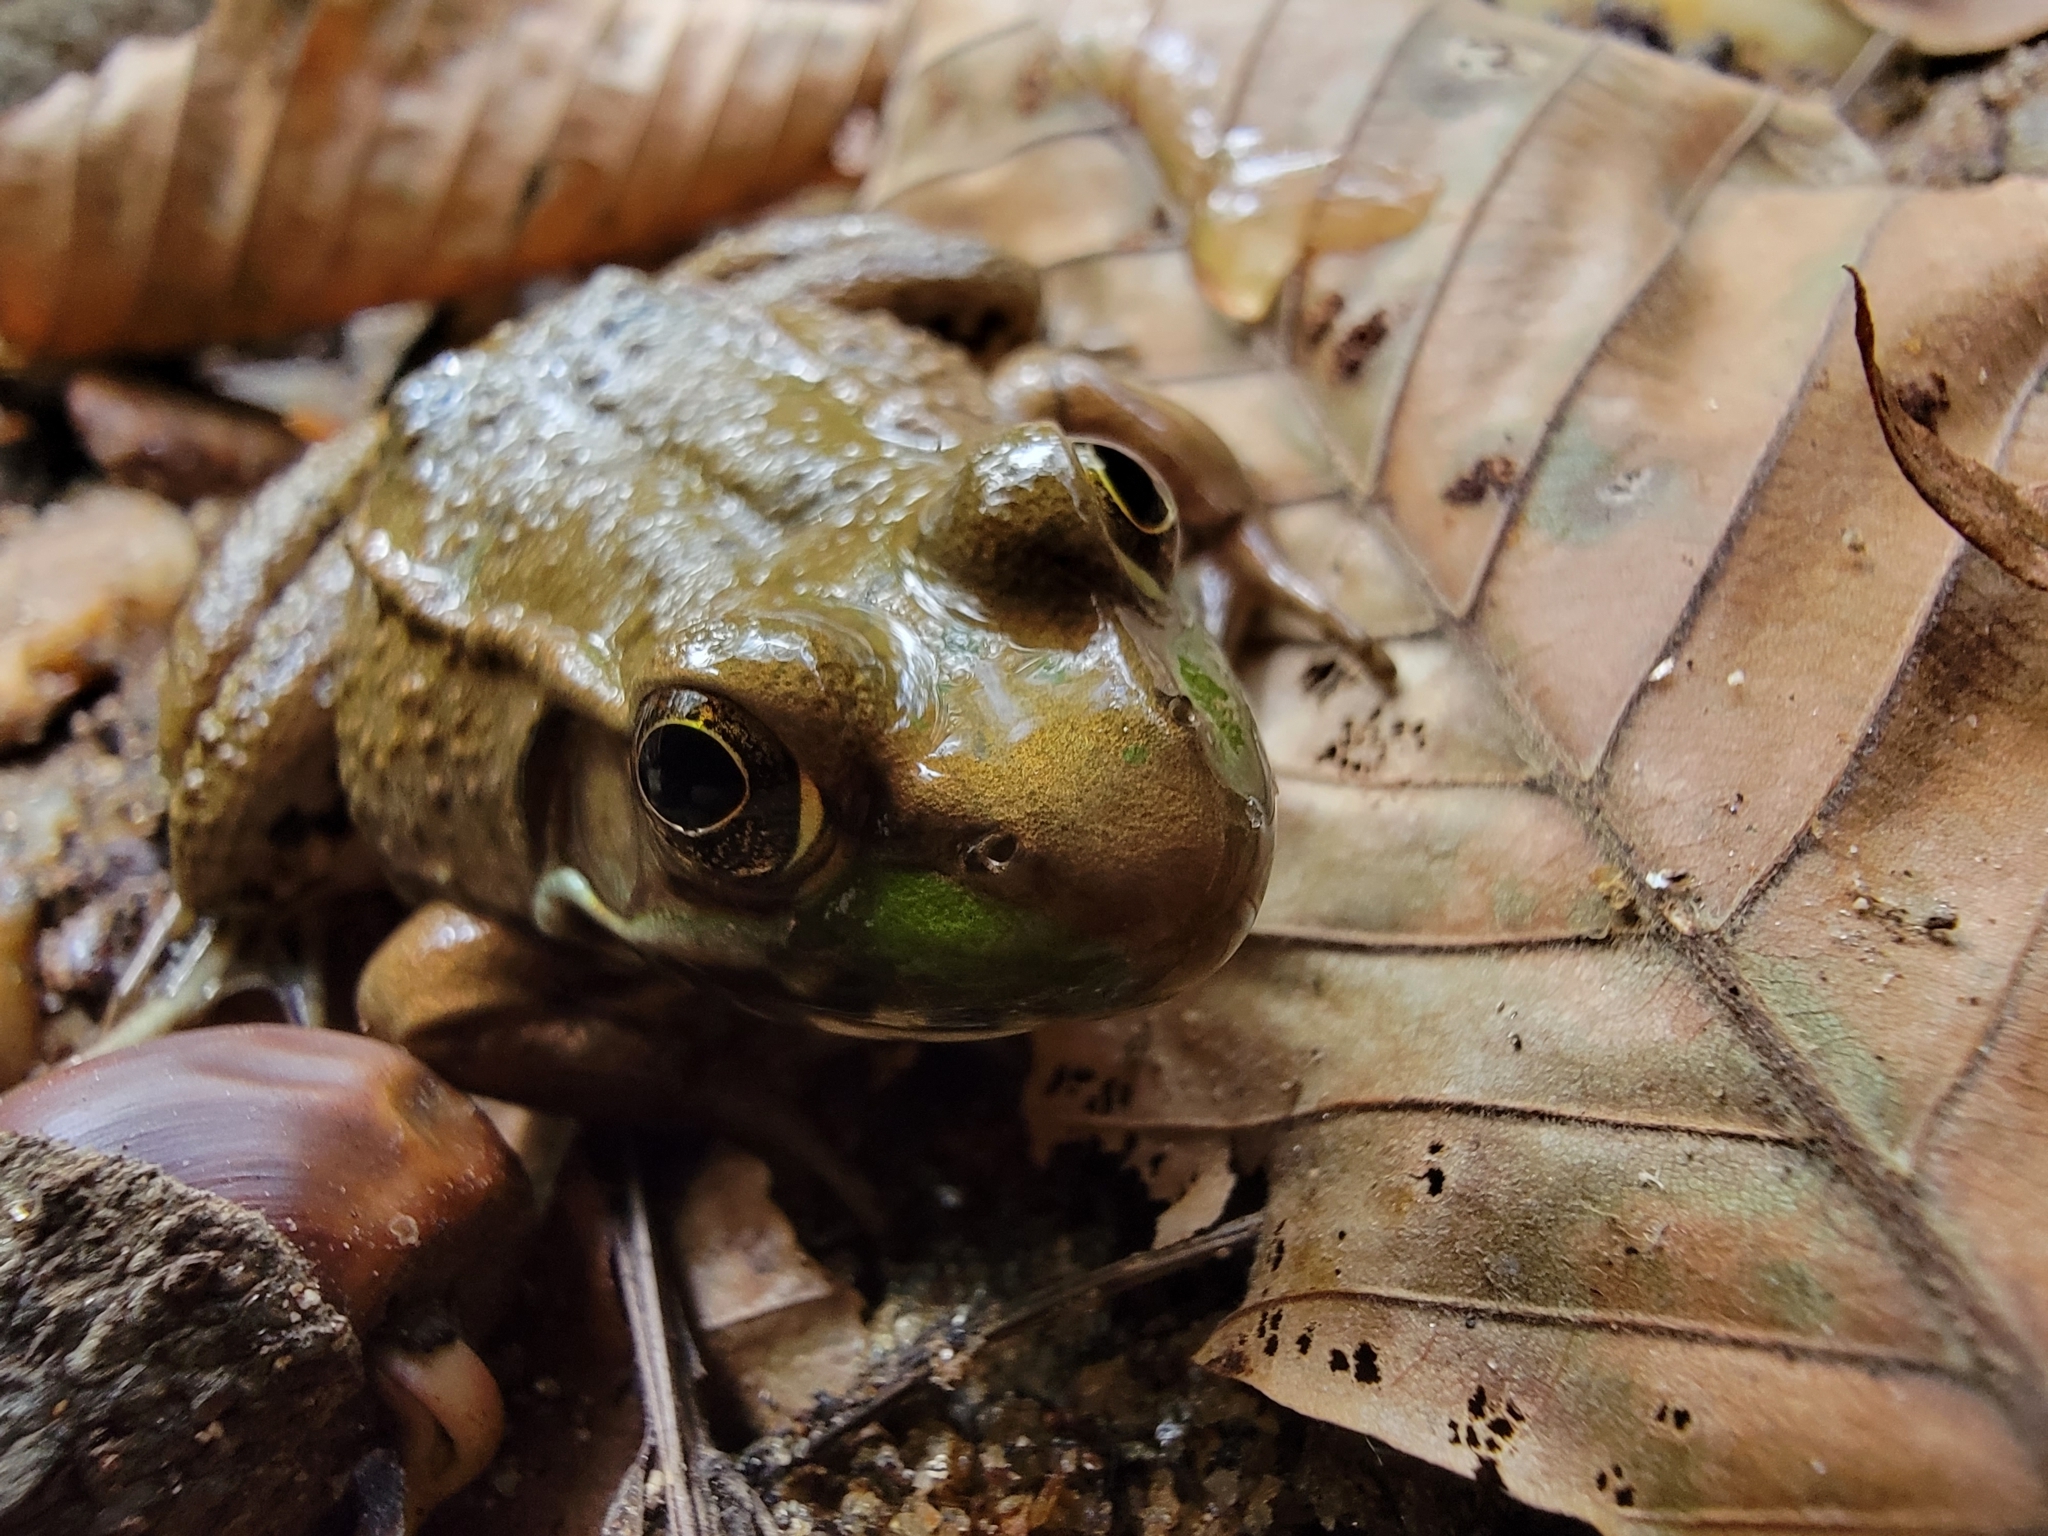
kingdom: Animalia
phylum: Chordata
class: Amphibia
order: Anura
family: Ranidae
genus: Lithobates
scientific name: Lithobates clamitans
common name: Green frog
